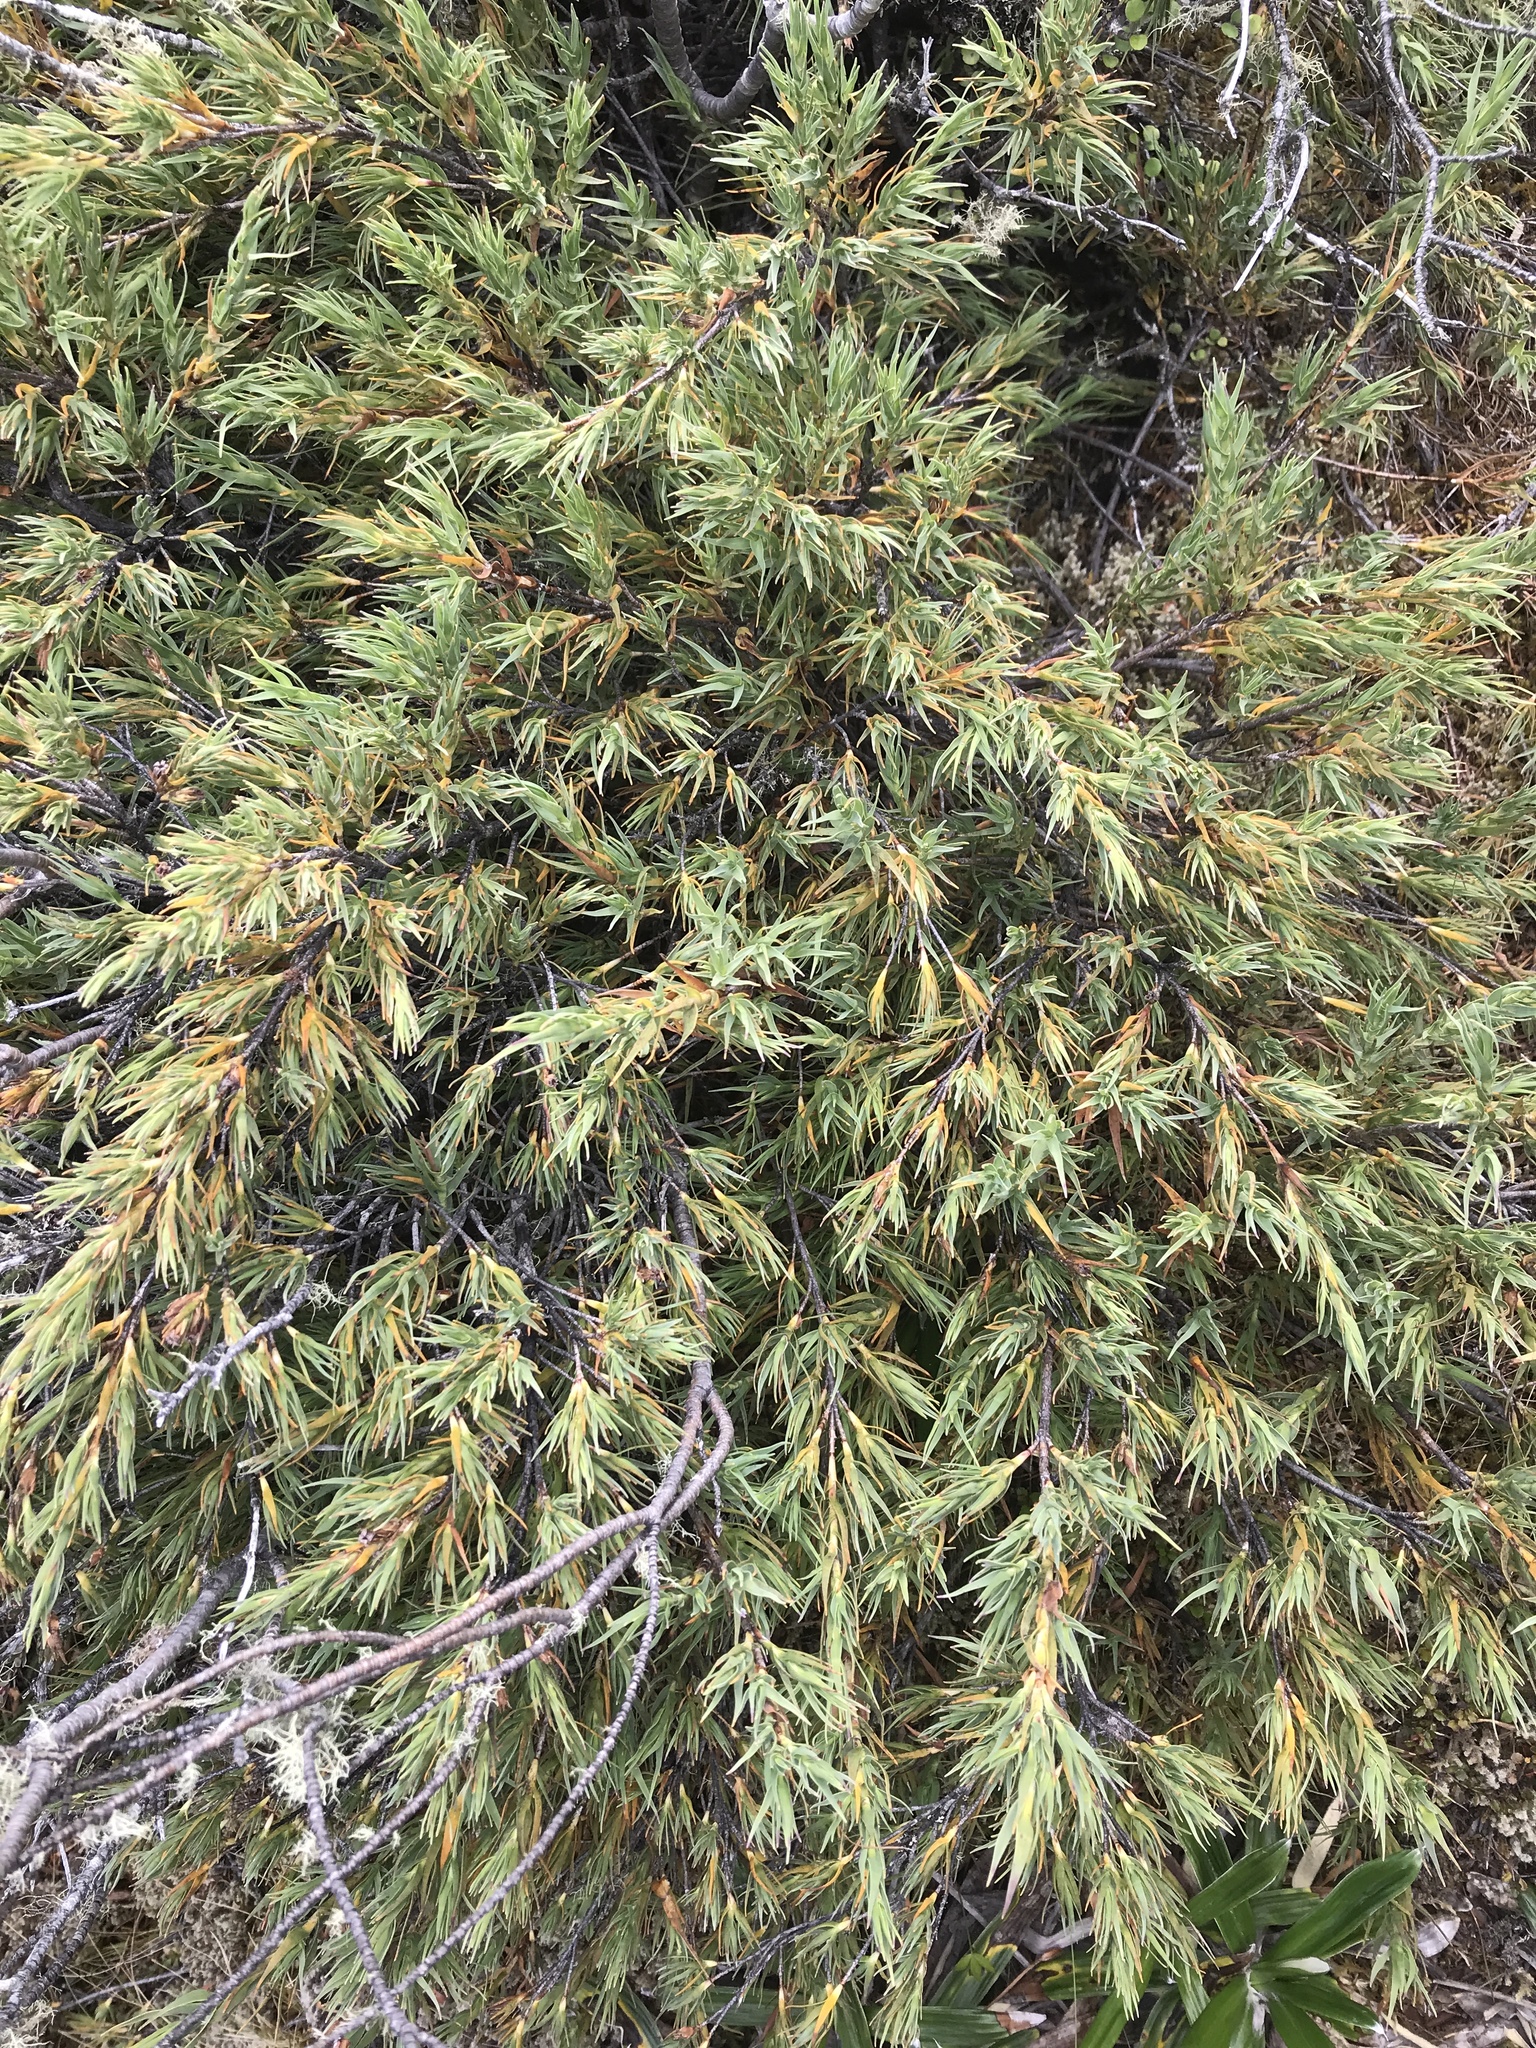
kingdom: Plantae
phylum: Tracheophyta
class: Magnoliopsida
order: Ericales
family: Ericaceae
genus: Dracophyllum
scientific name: Dracophyllum kirkii
